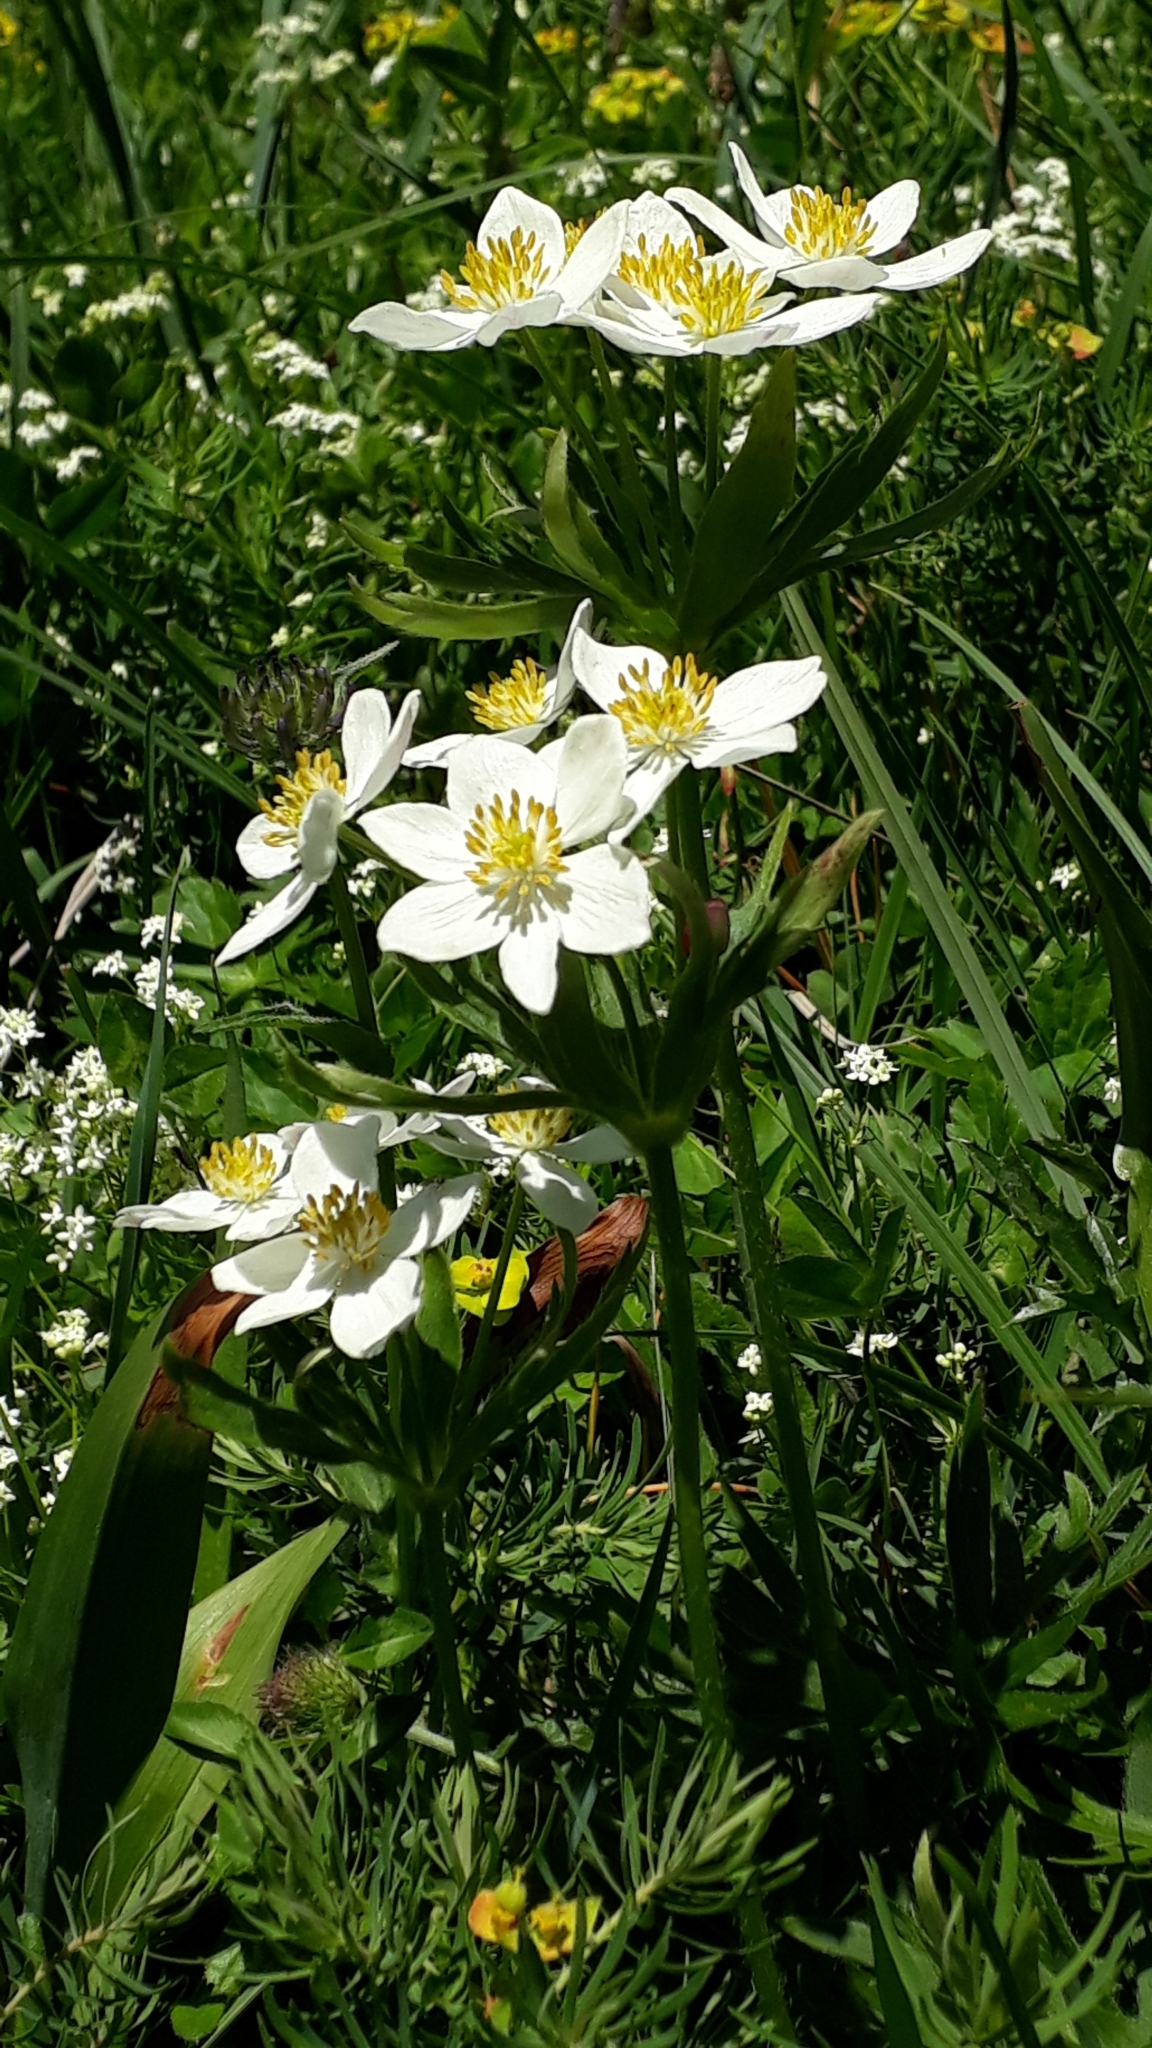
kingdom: Plantae
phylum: Tracheophyta
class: Magnoliopsida
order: Ranunculales
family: Ranunculaceae
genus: Anemonastrum
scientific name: Anemonastrum narcissiflorum
